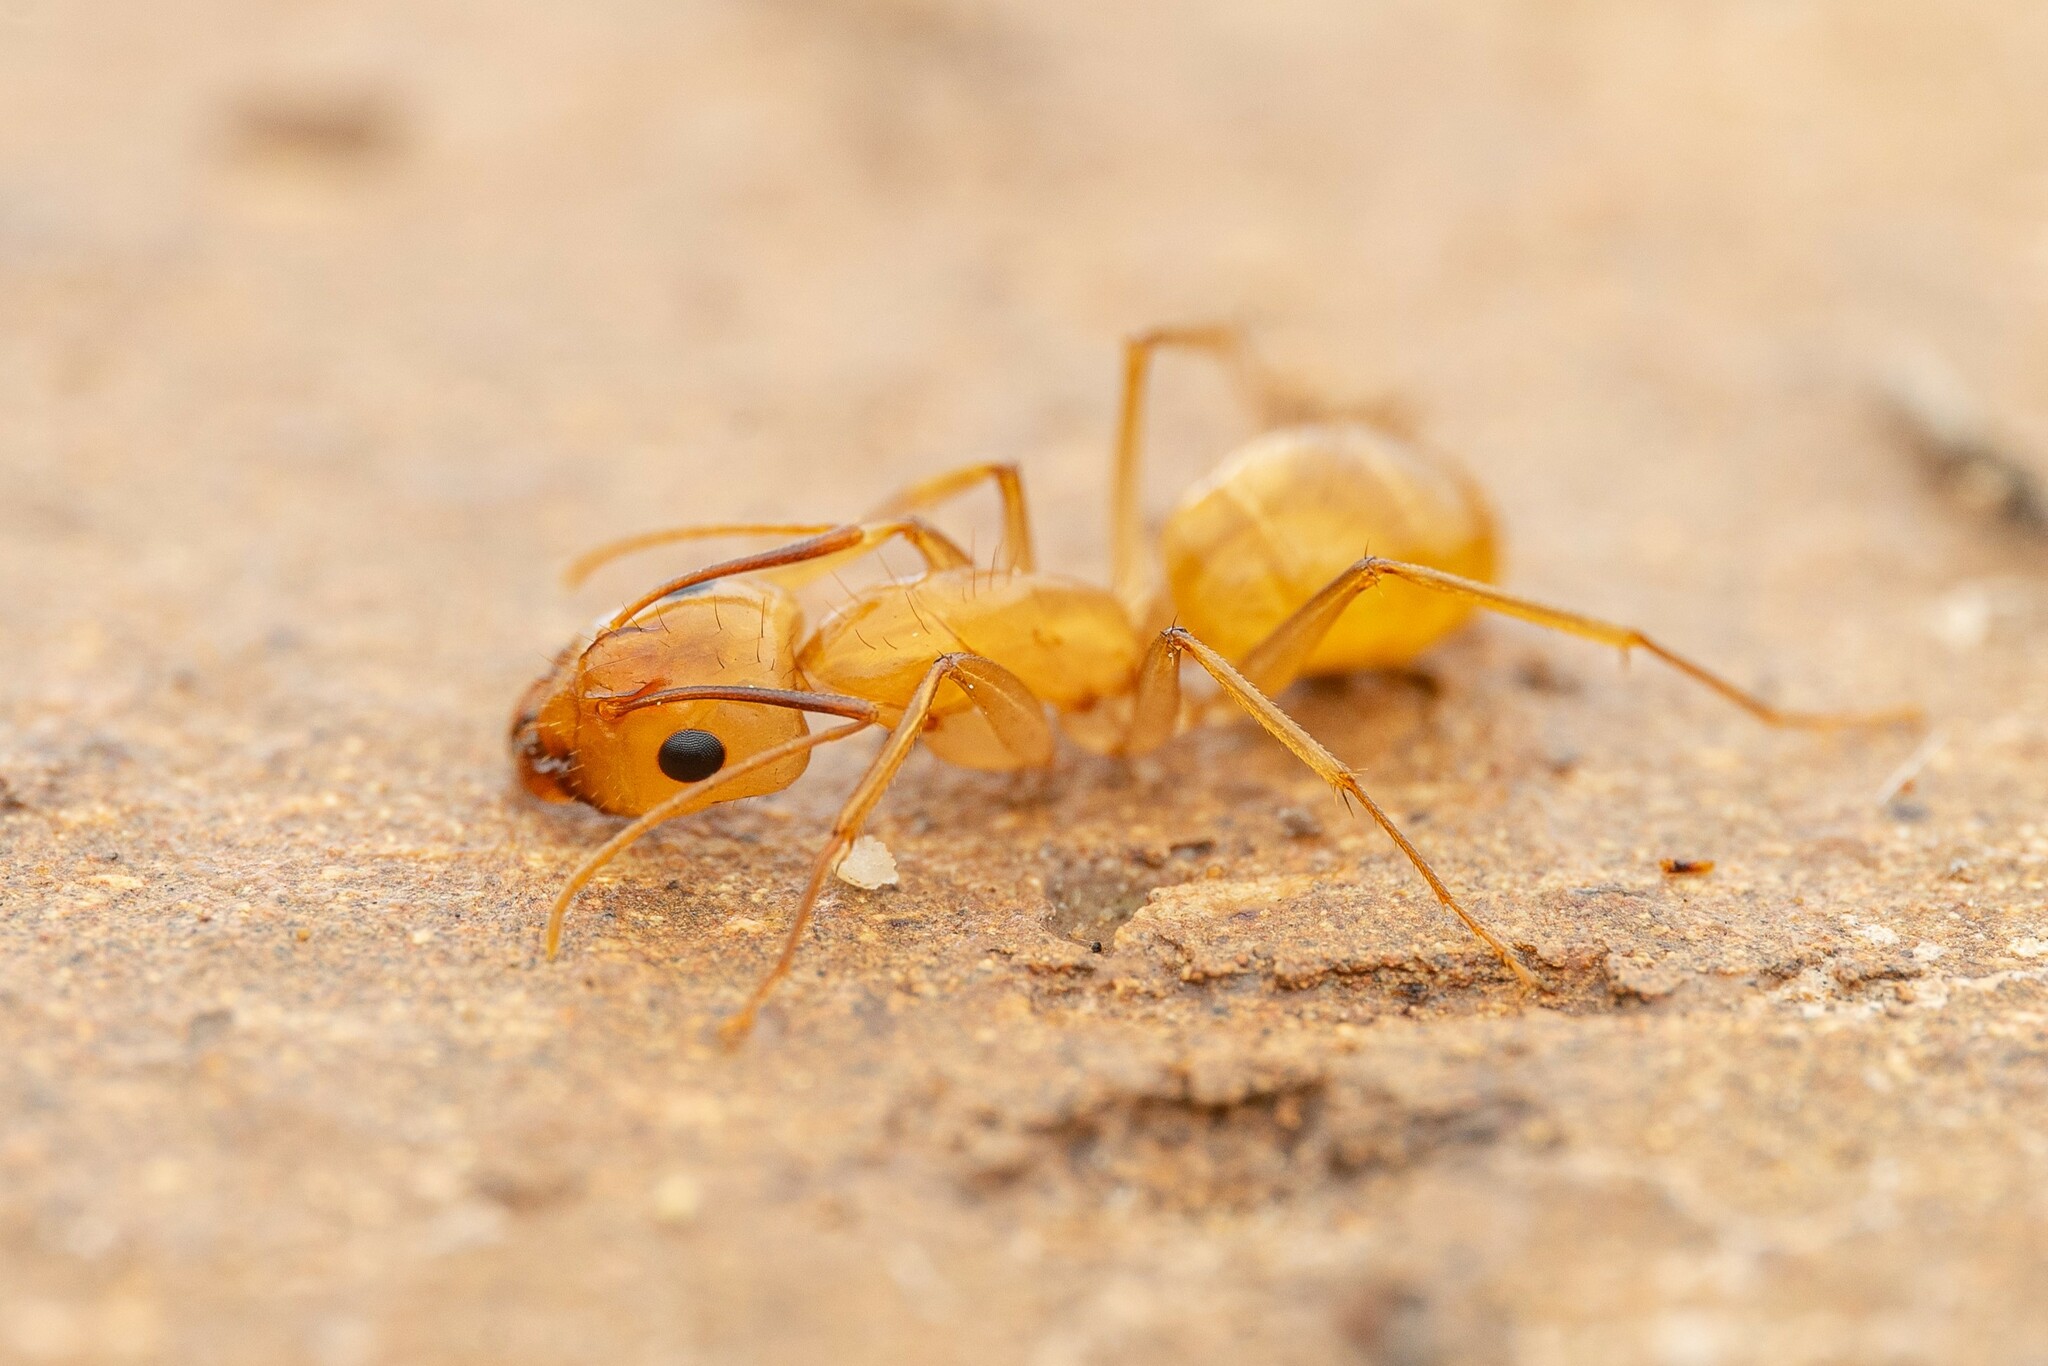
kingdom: Animalia
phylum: Arthropoda
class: Insecta
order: Hymenoptera
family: Formicidae
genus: Camponotus
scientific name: Camponotus fragilis
